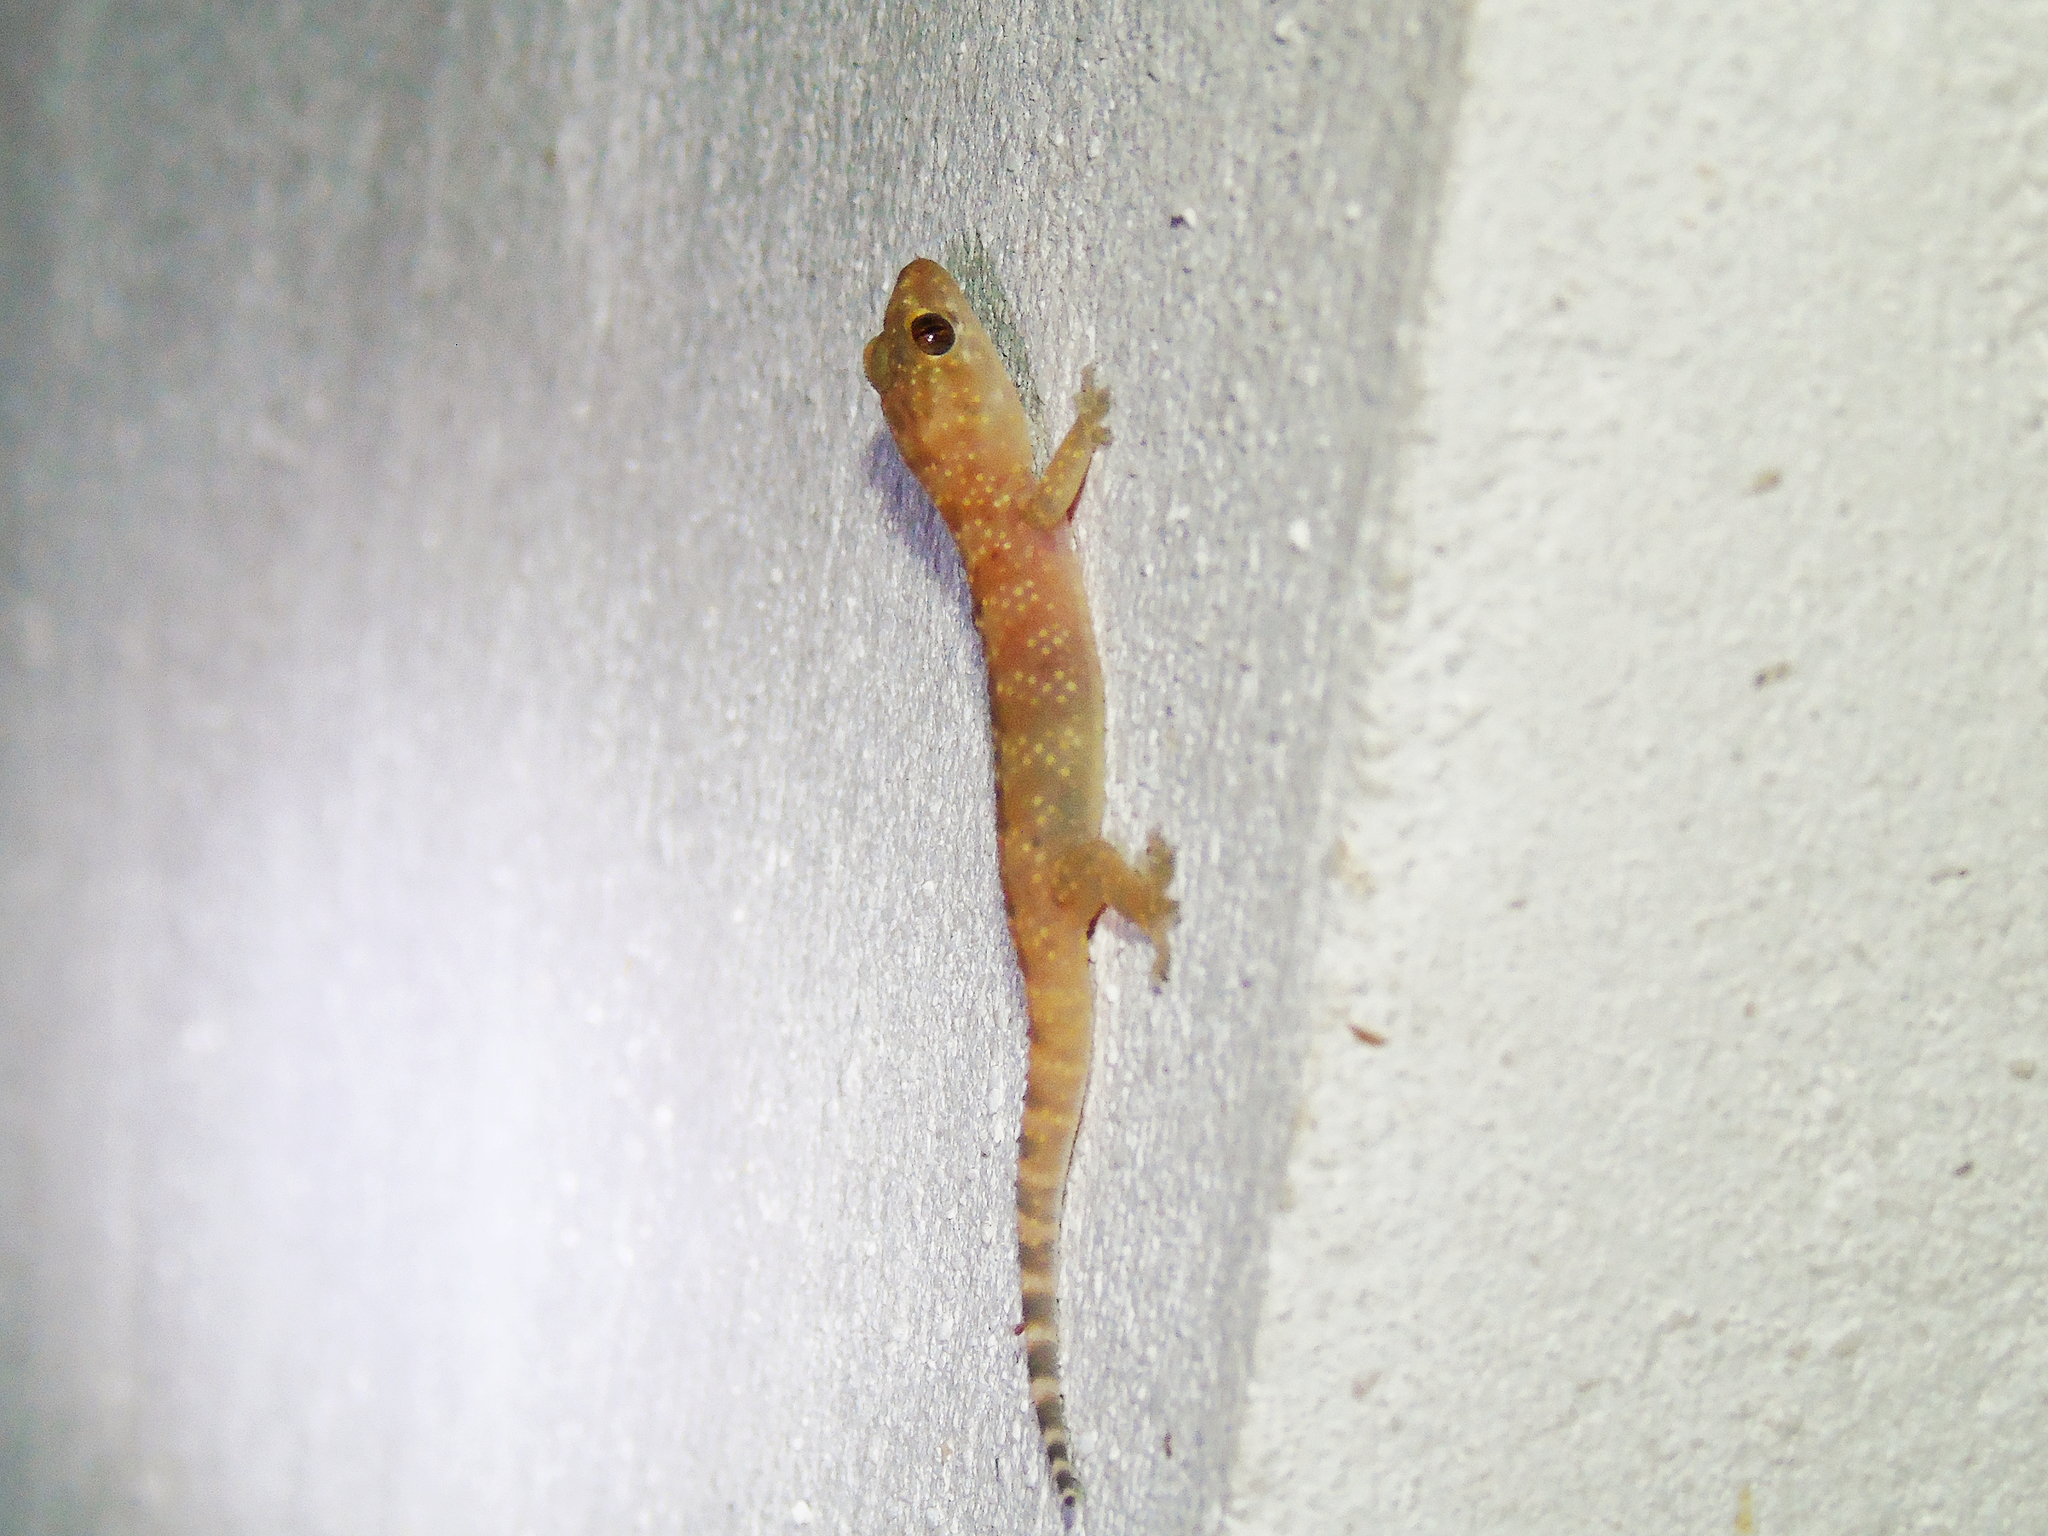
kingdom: Animalia
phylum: Chordata
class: Squamata
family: Gekkonidae
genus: Hemidactylus
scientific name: Hemidactylus turcicus
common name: Turkish gecko
